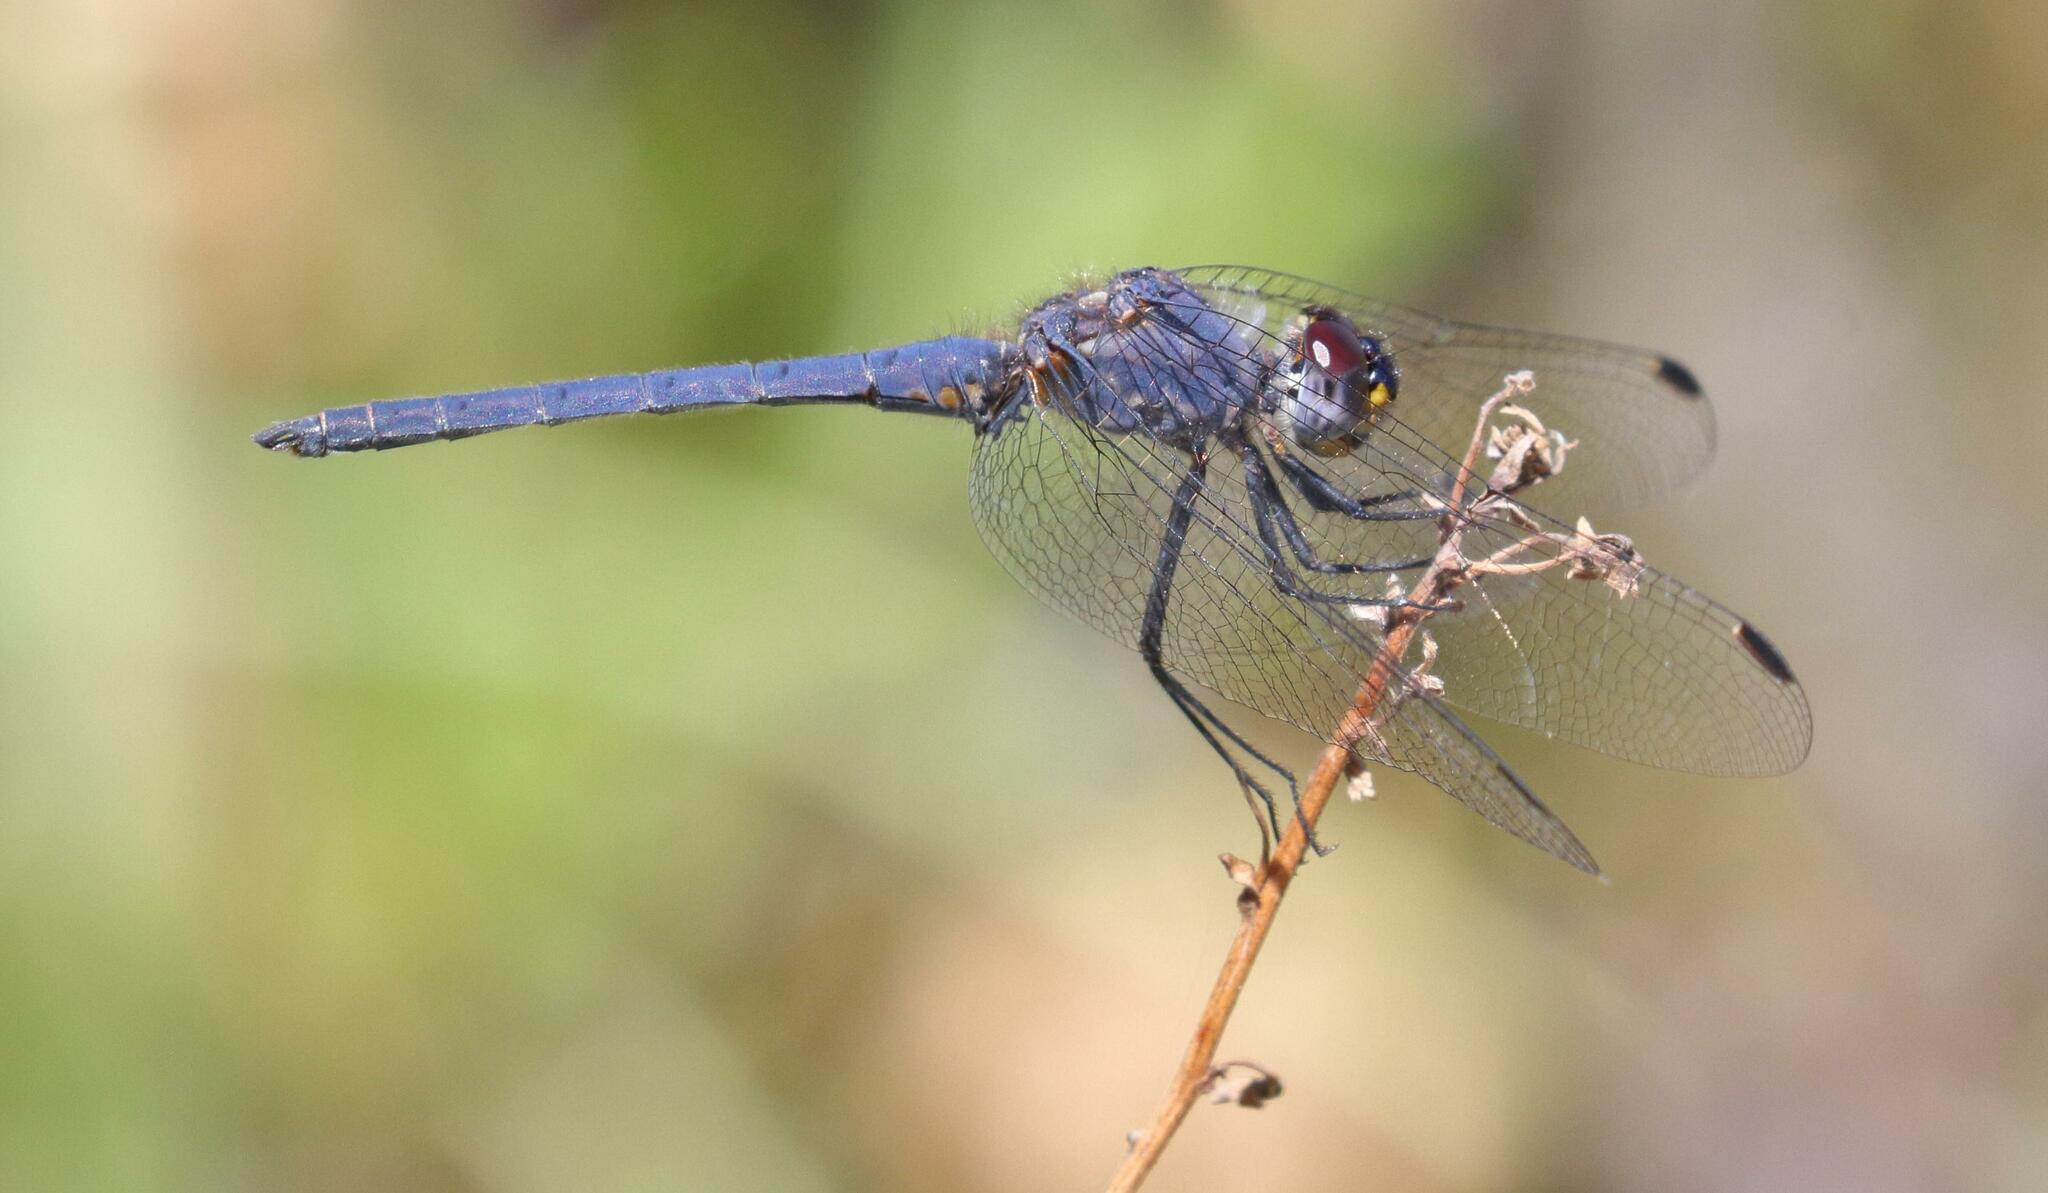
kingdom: Animalia
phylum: Arthropoda
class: Insecta
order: Odonata
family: Libellulidae
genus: Trithemis
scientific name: Trithemis furva
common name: Dark dropwing
